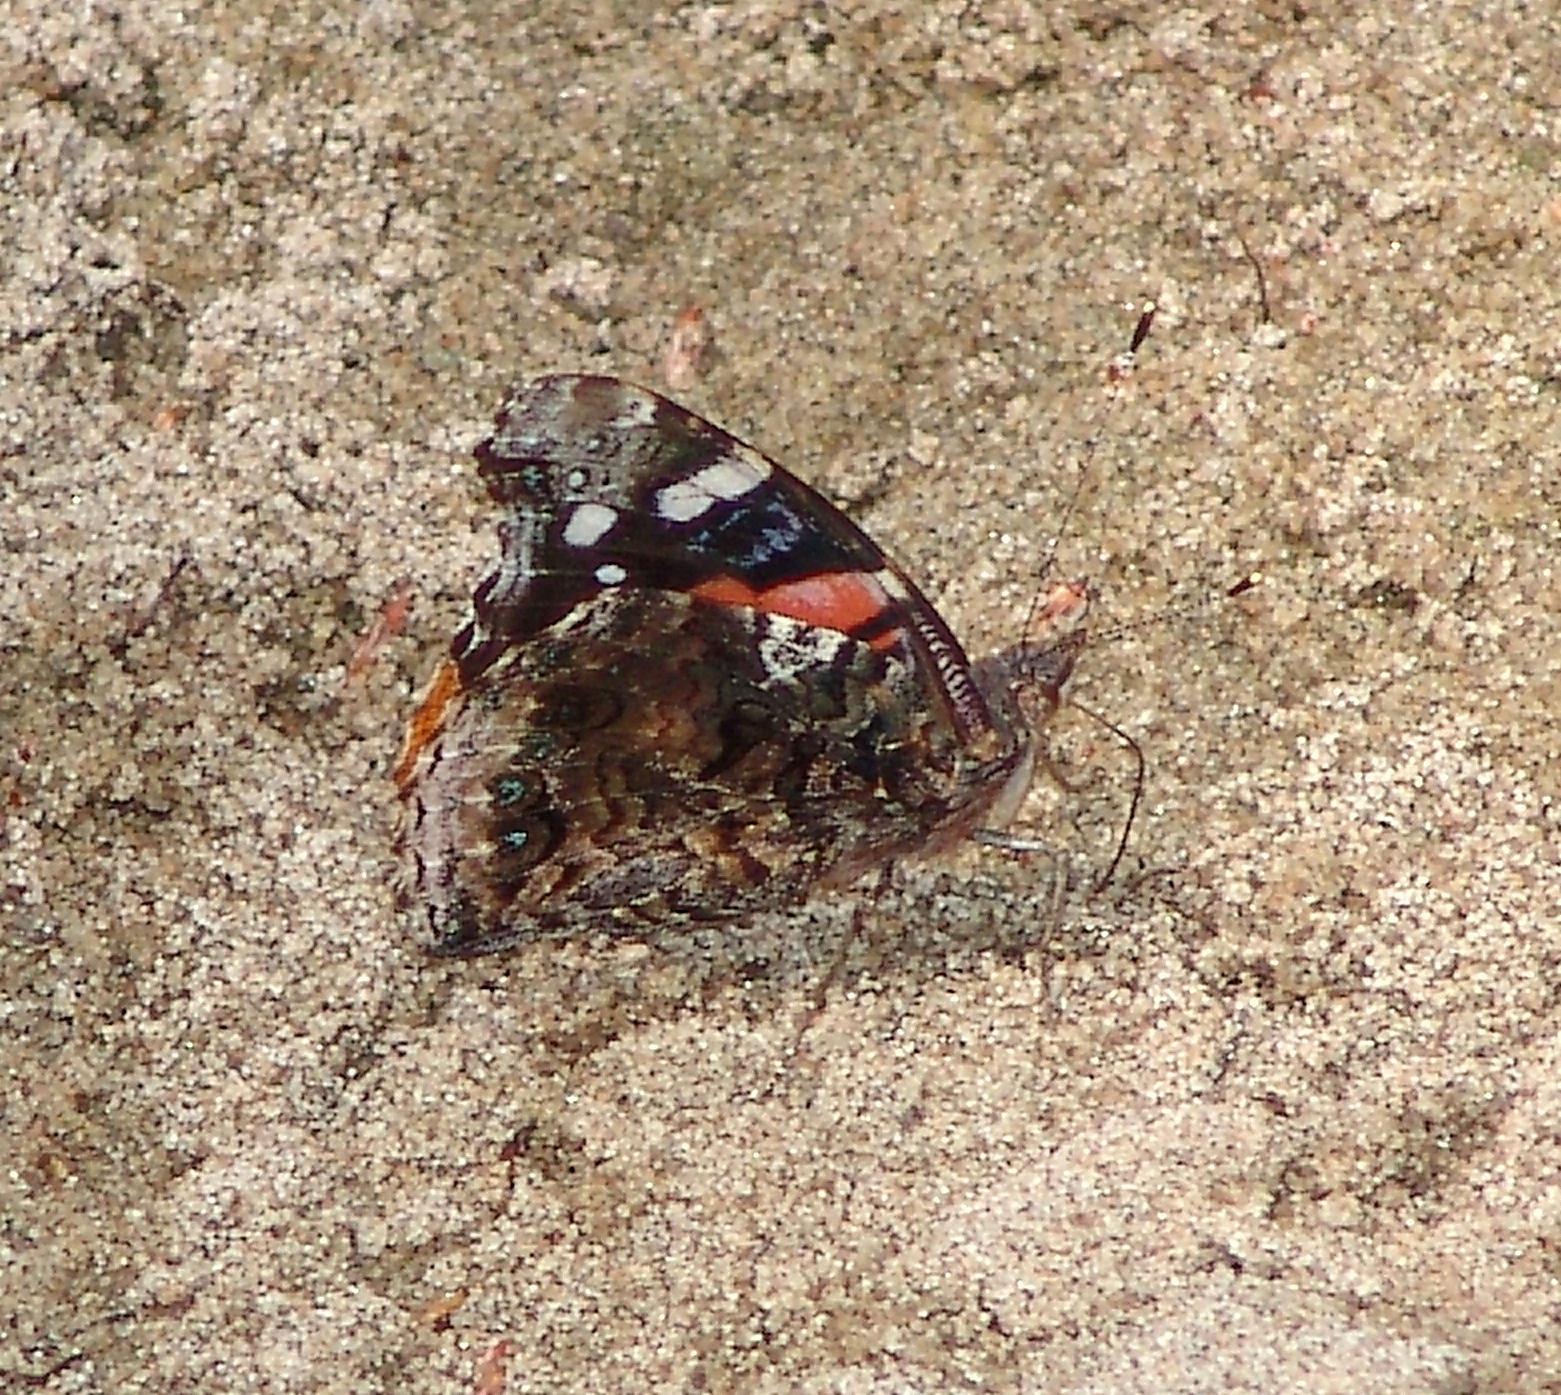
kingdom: Animalia
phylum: Arthropoda
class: Insecta
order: Lepidoptera
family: Nymphalidae
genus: Vanessa
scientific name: Vanessa atalanta
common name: Red admiral
